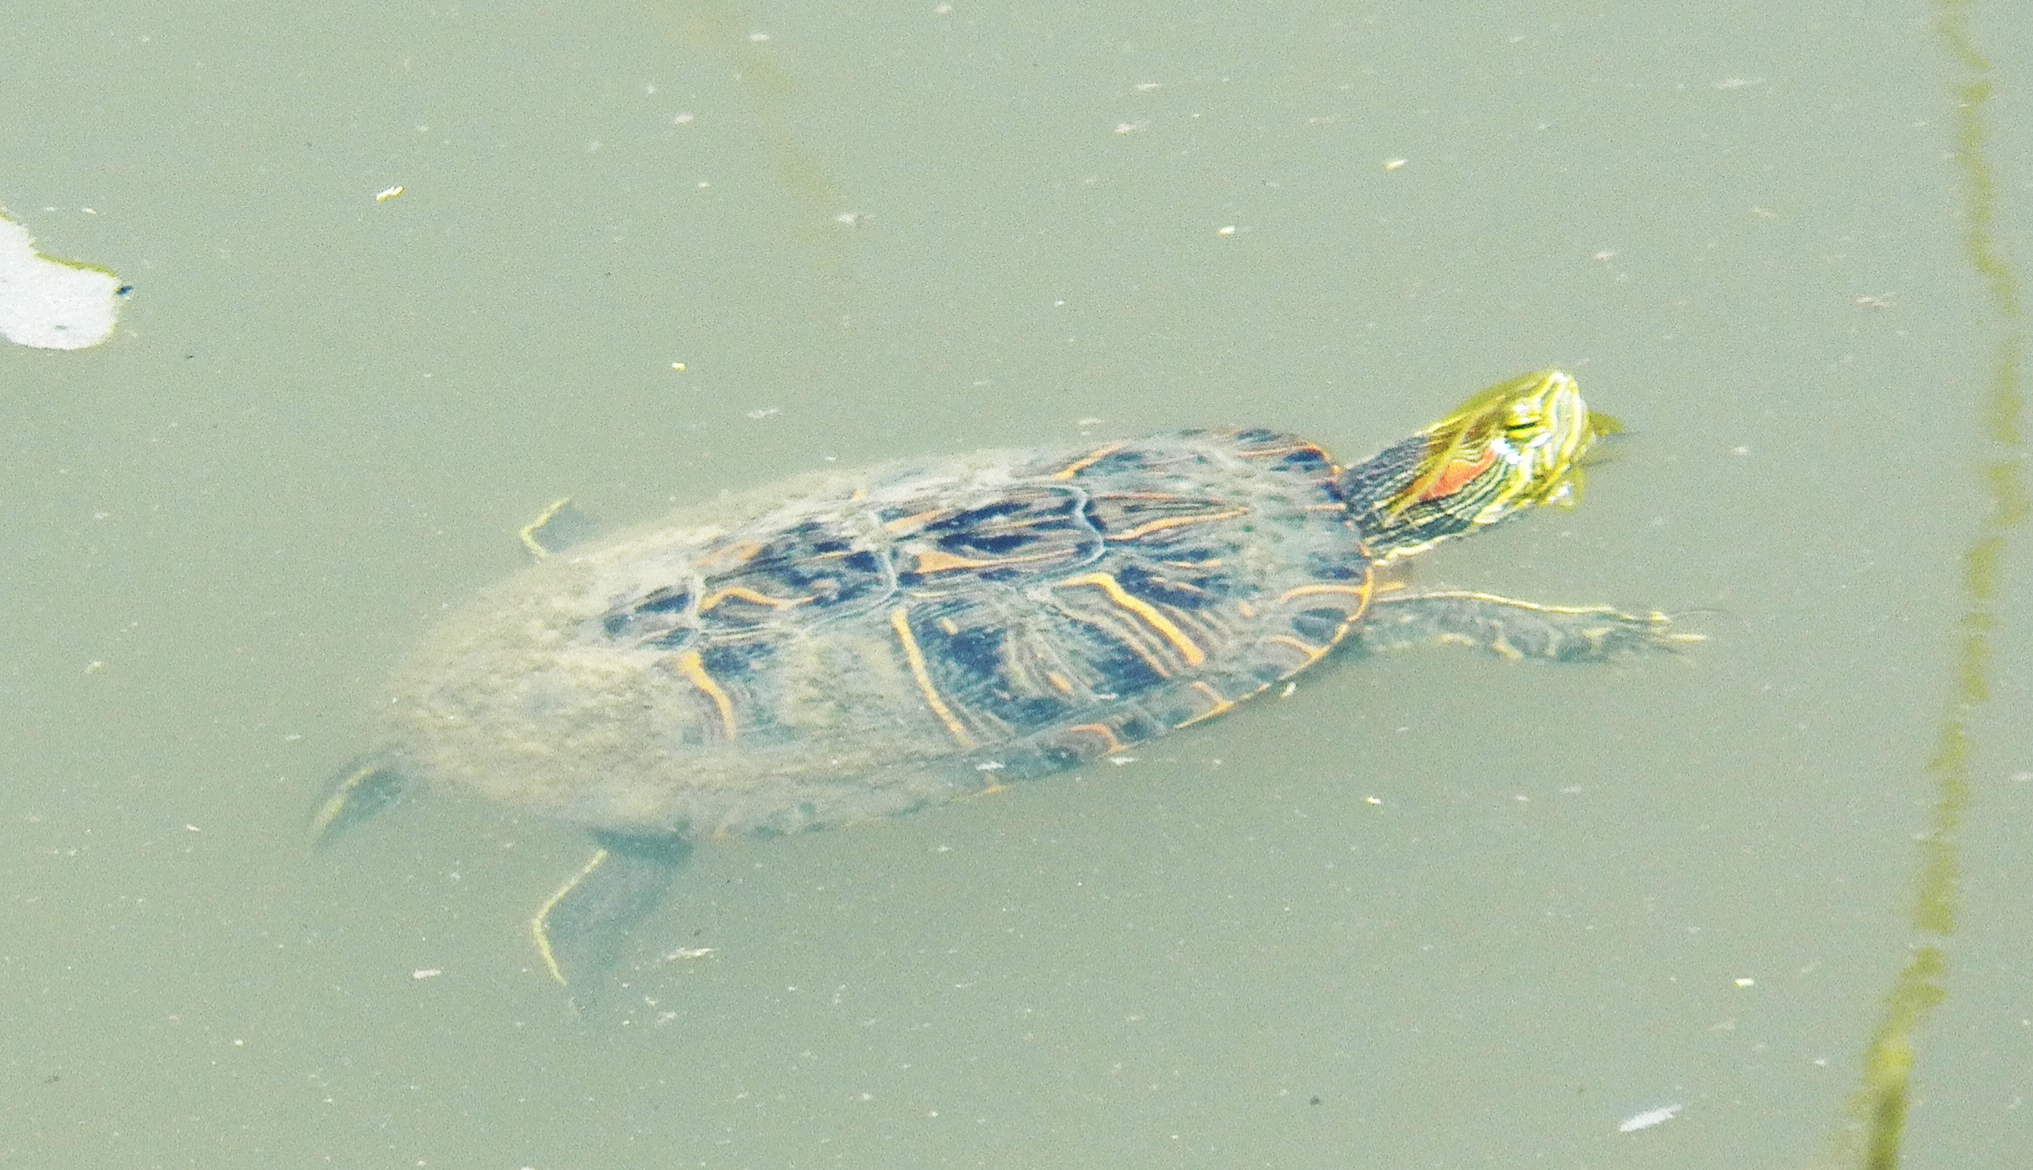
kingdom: Animalia
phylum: Chordata
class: Testudines
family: Emydidae
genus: Trachemys
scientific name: Trachemys scripta
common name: Slider
